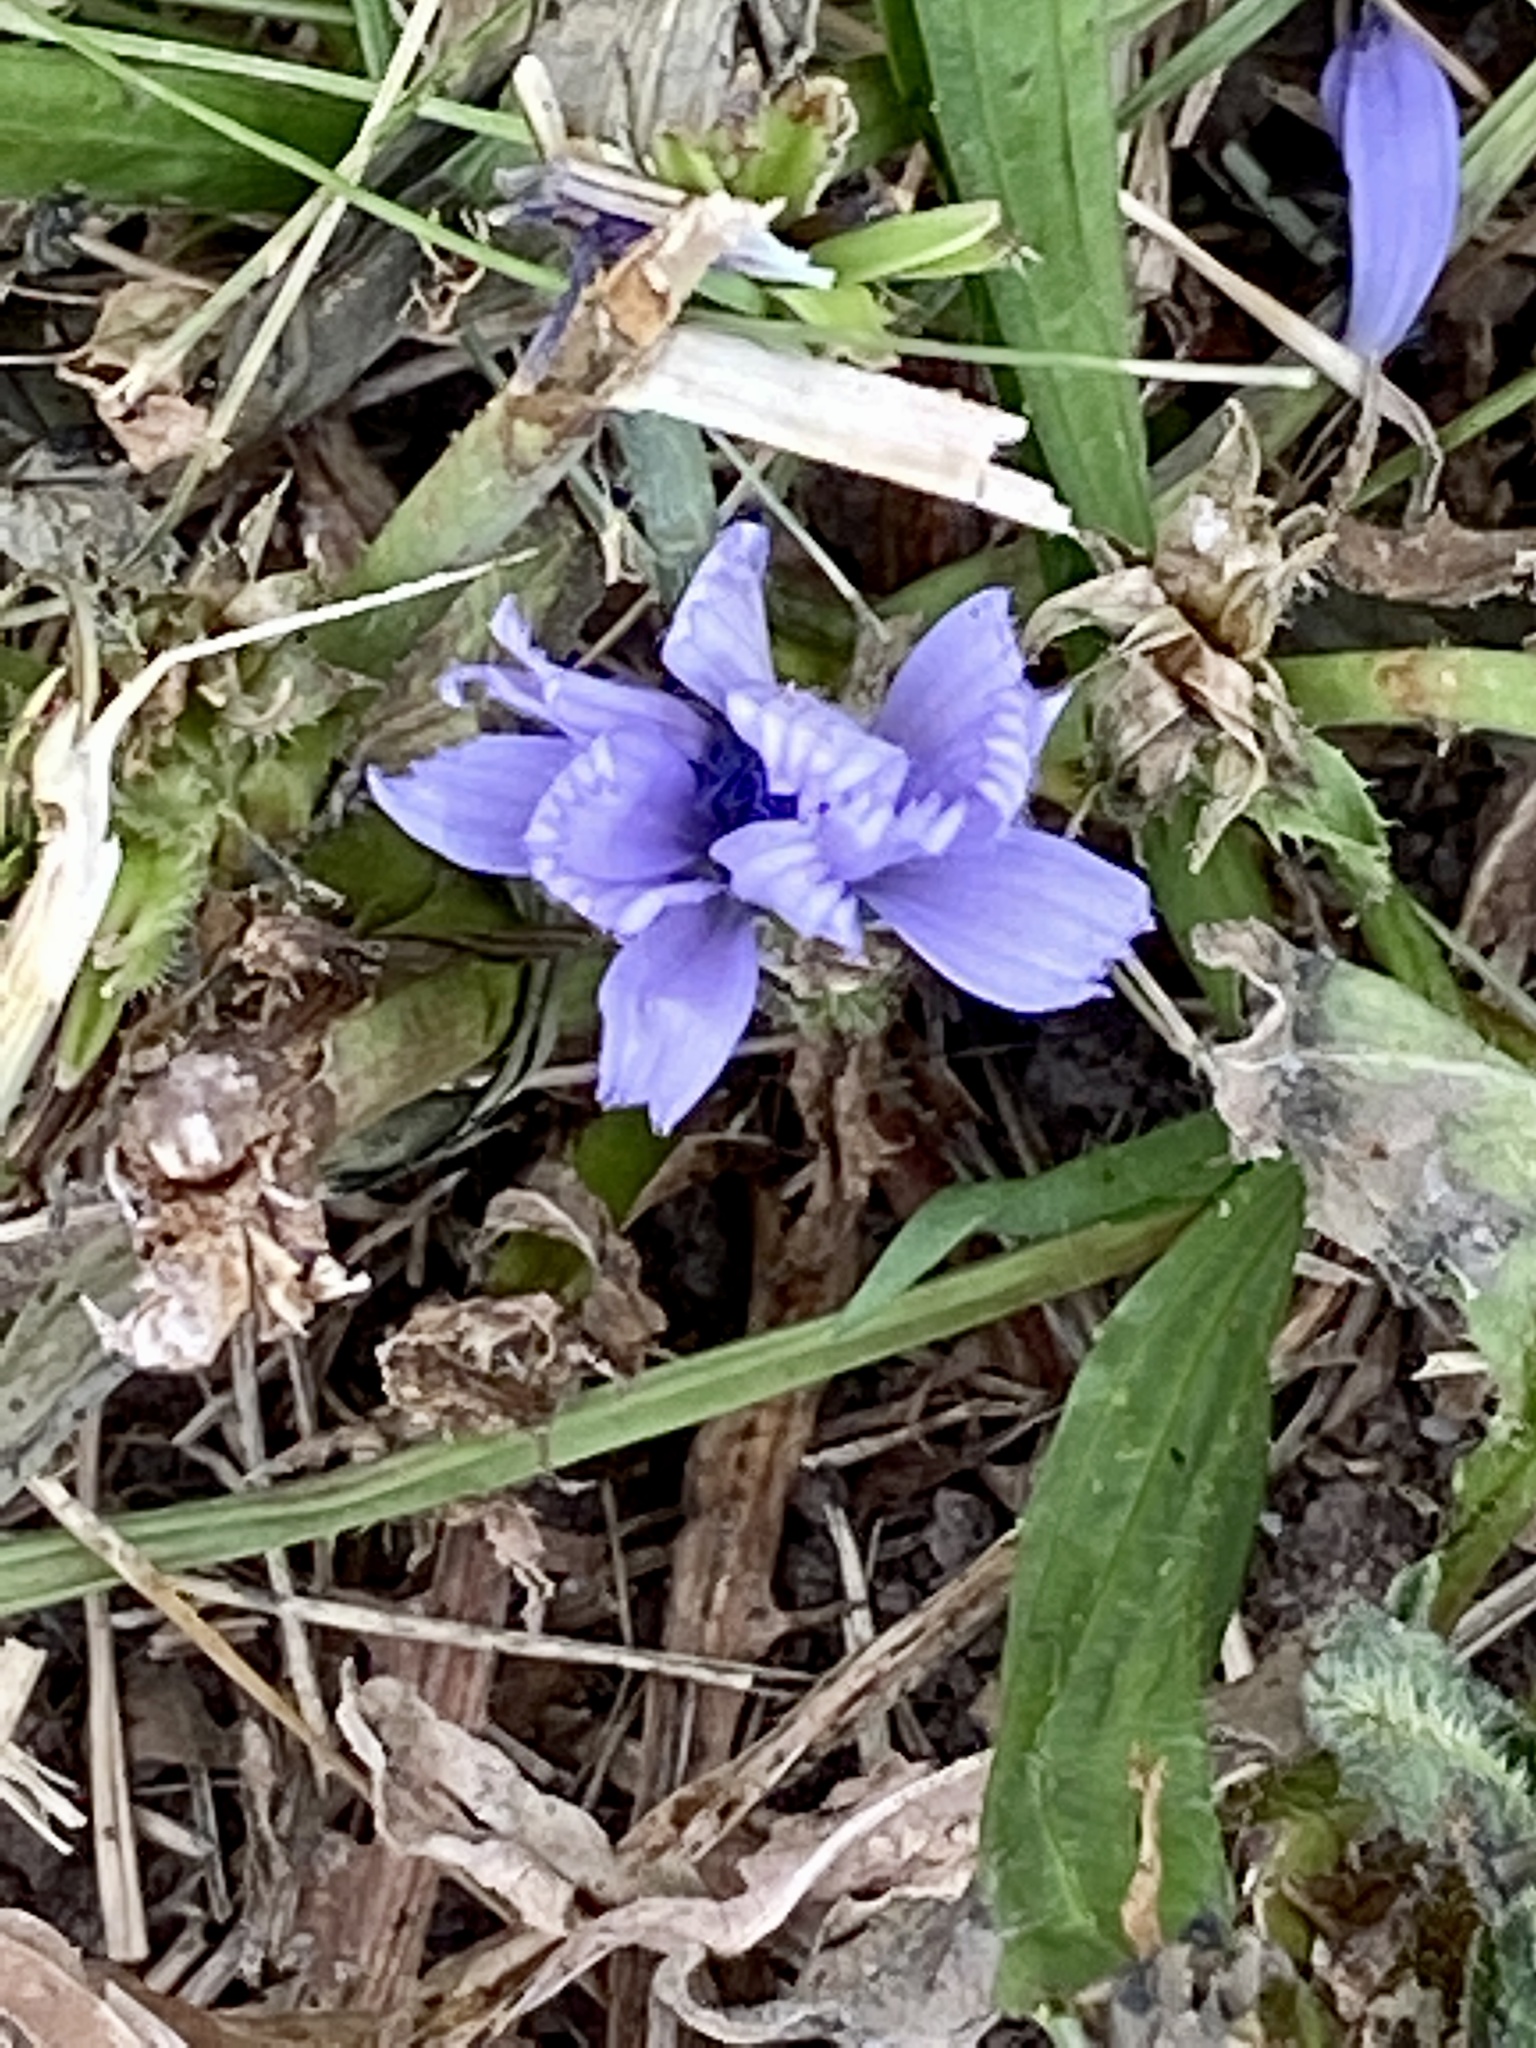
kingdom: Plantae
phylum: Tracheophyta
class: Magnoliopsida
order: Asterales
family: Asteraceae
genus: Cichorium
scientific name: Cichorium intybus
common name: Chicory
